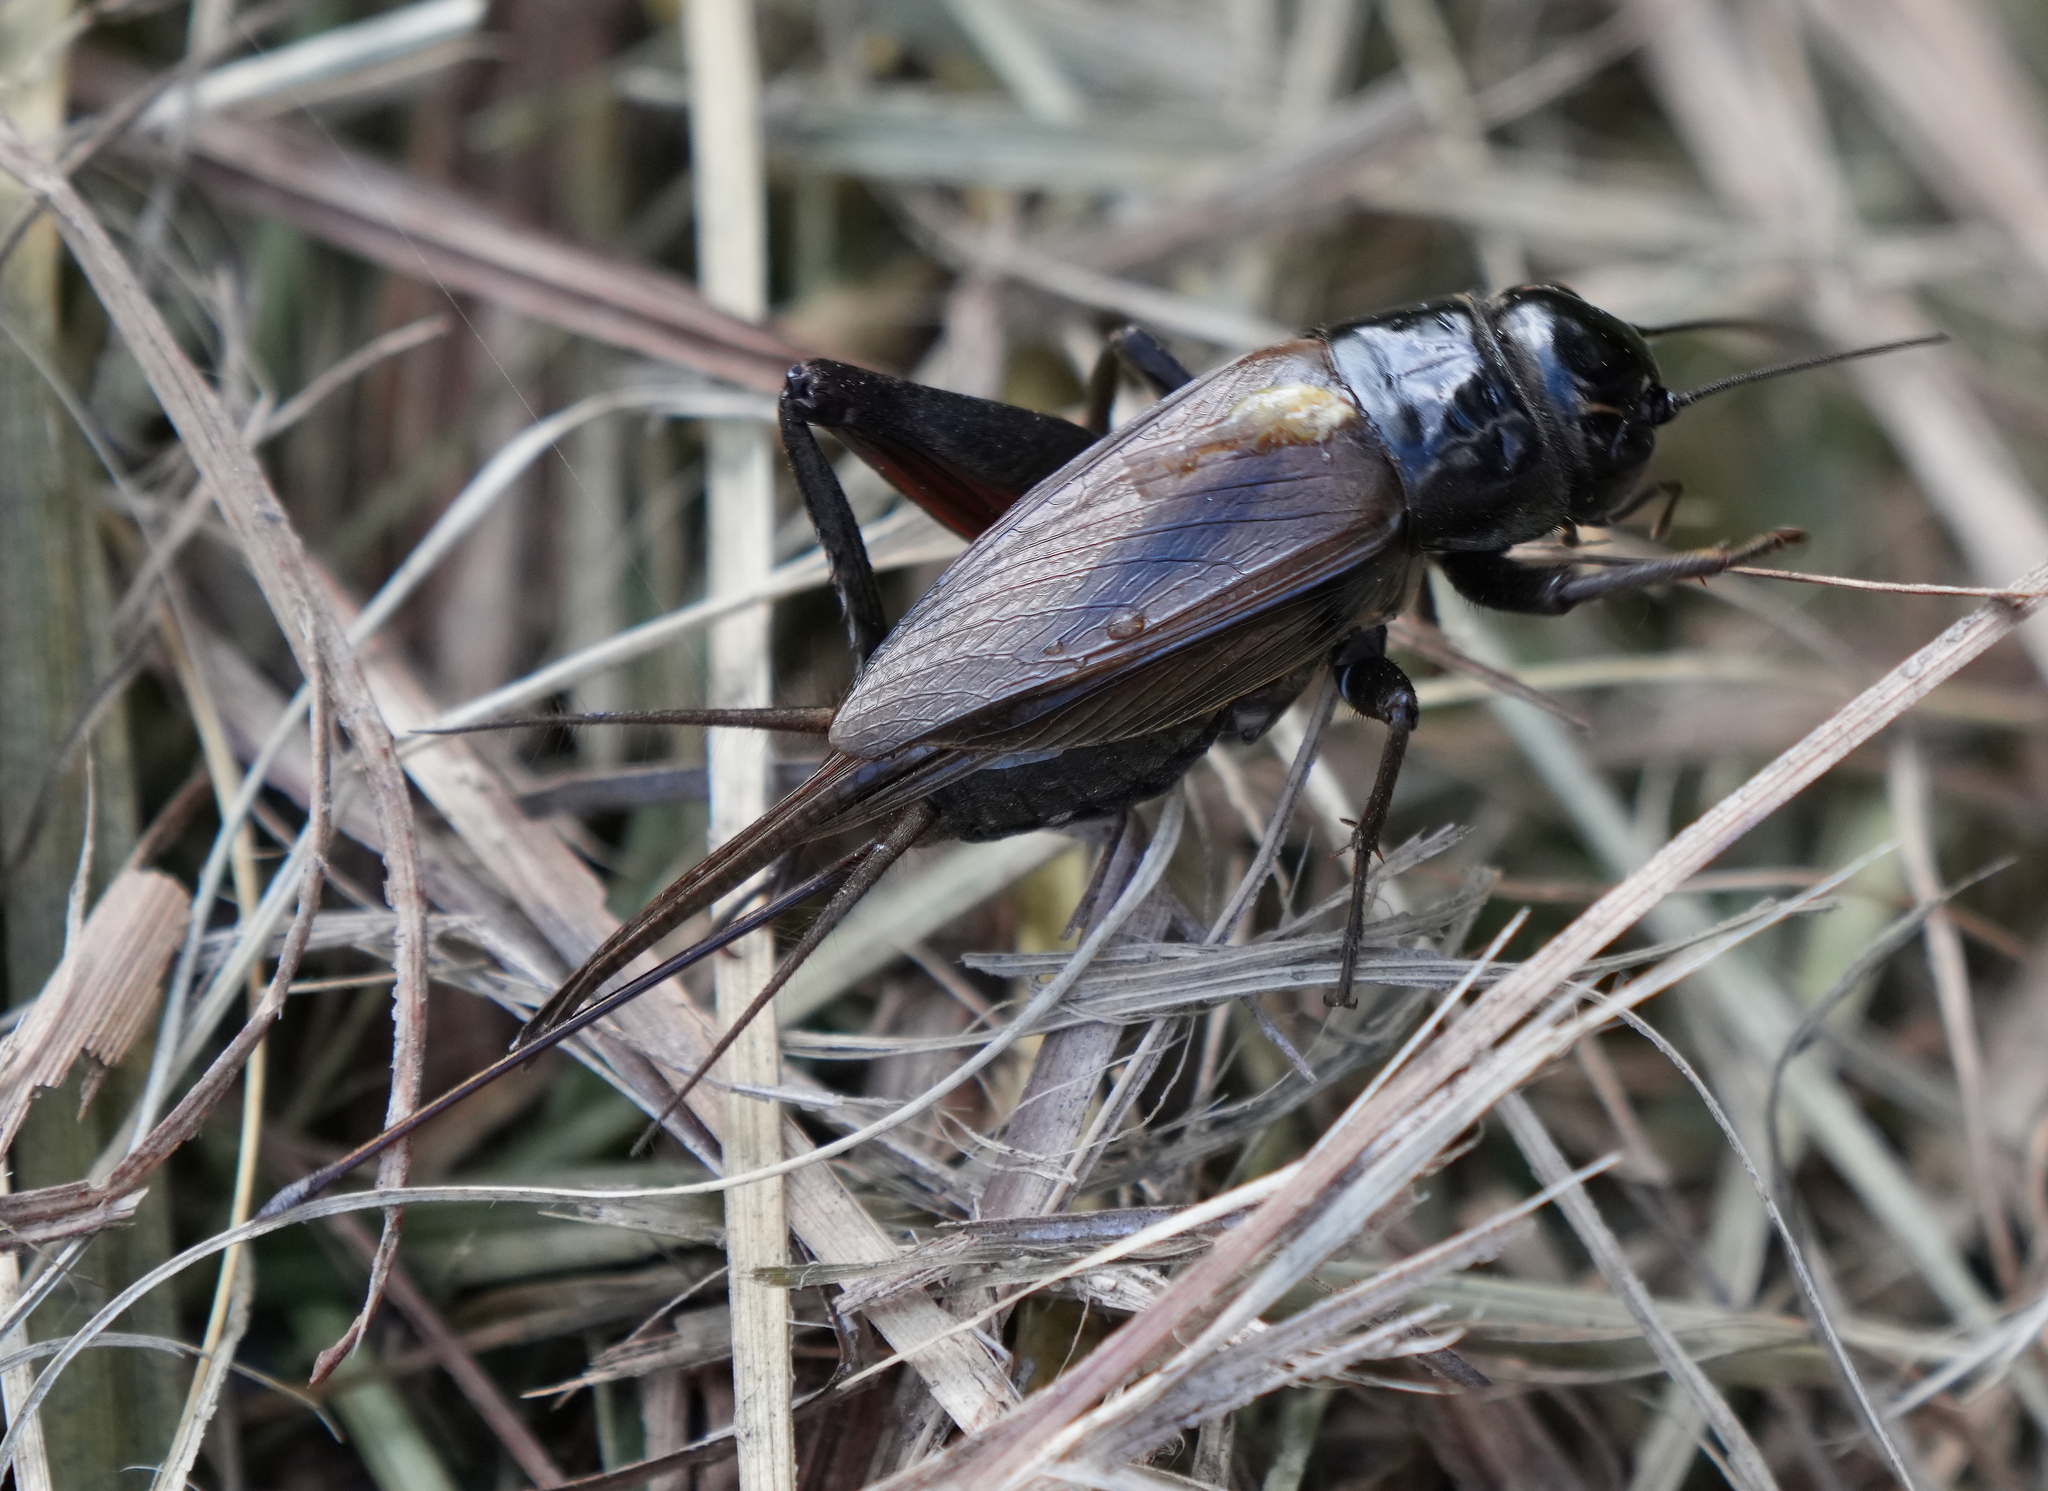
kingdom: Animalia
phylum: Arthropoda
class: Insecta
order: Orthoptera
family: Gryllidae
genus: Teleogryllus
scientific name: Teleogryllus commodus
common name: Black field cricket
